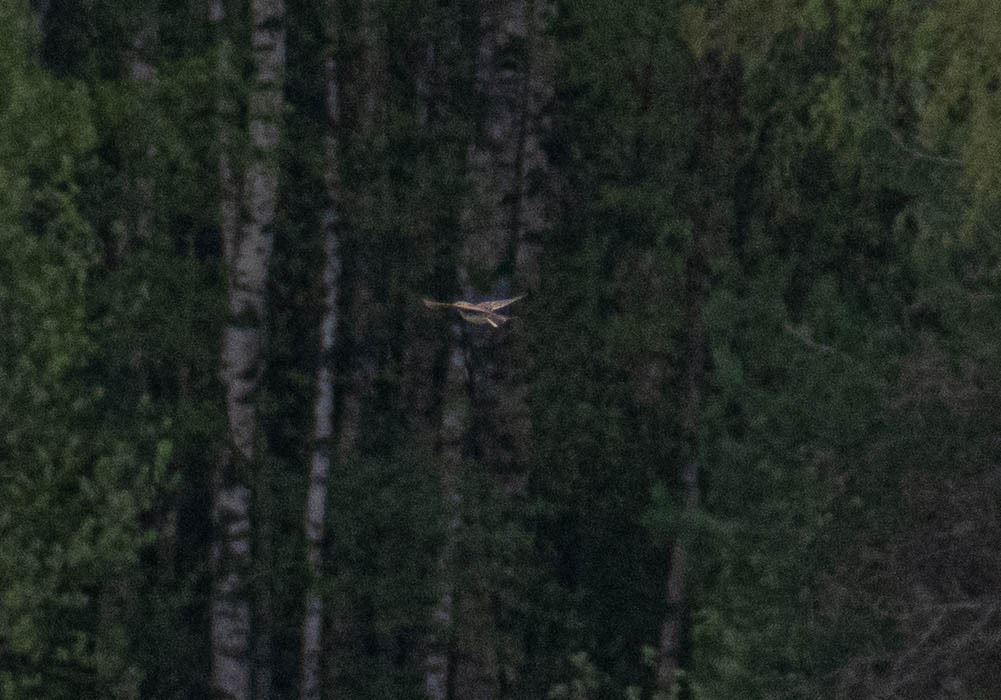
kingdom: Animalia
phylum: Chordata
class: Aves
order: Passeriformes
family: Alaudidae
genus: Alauda
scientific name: Alauda arvensis
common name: Eurasian skylark
